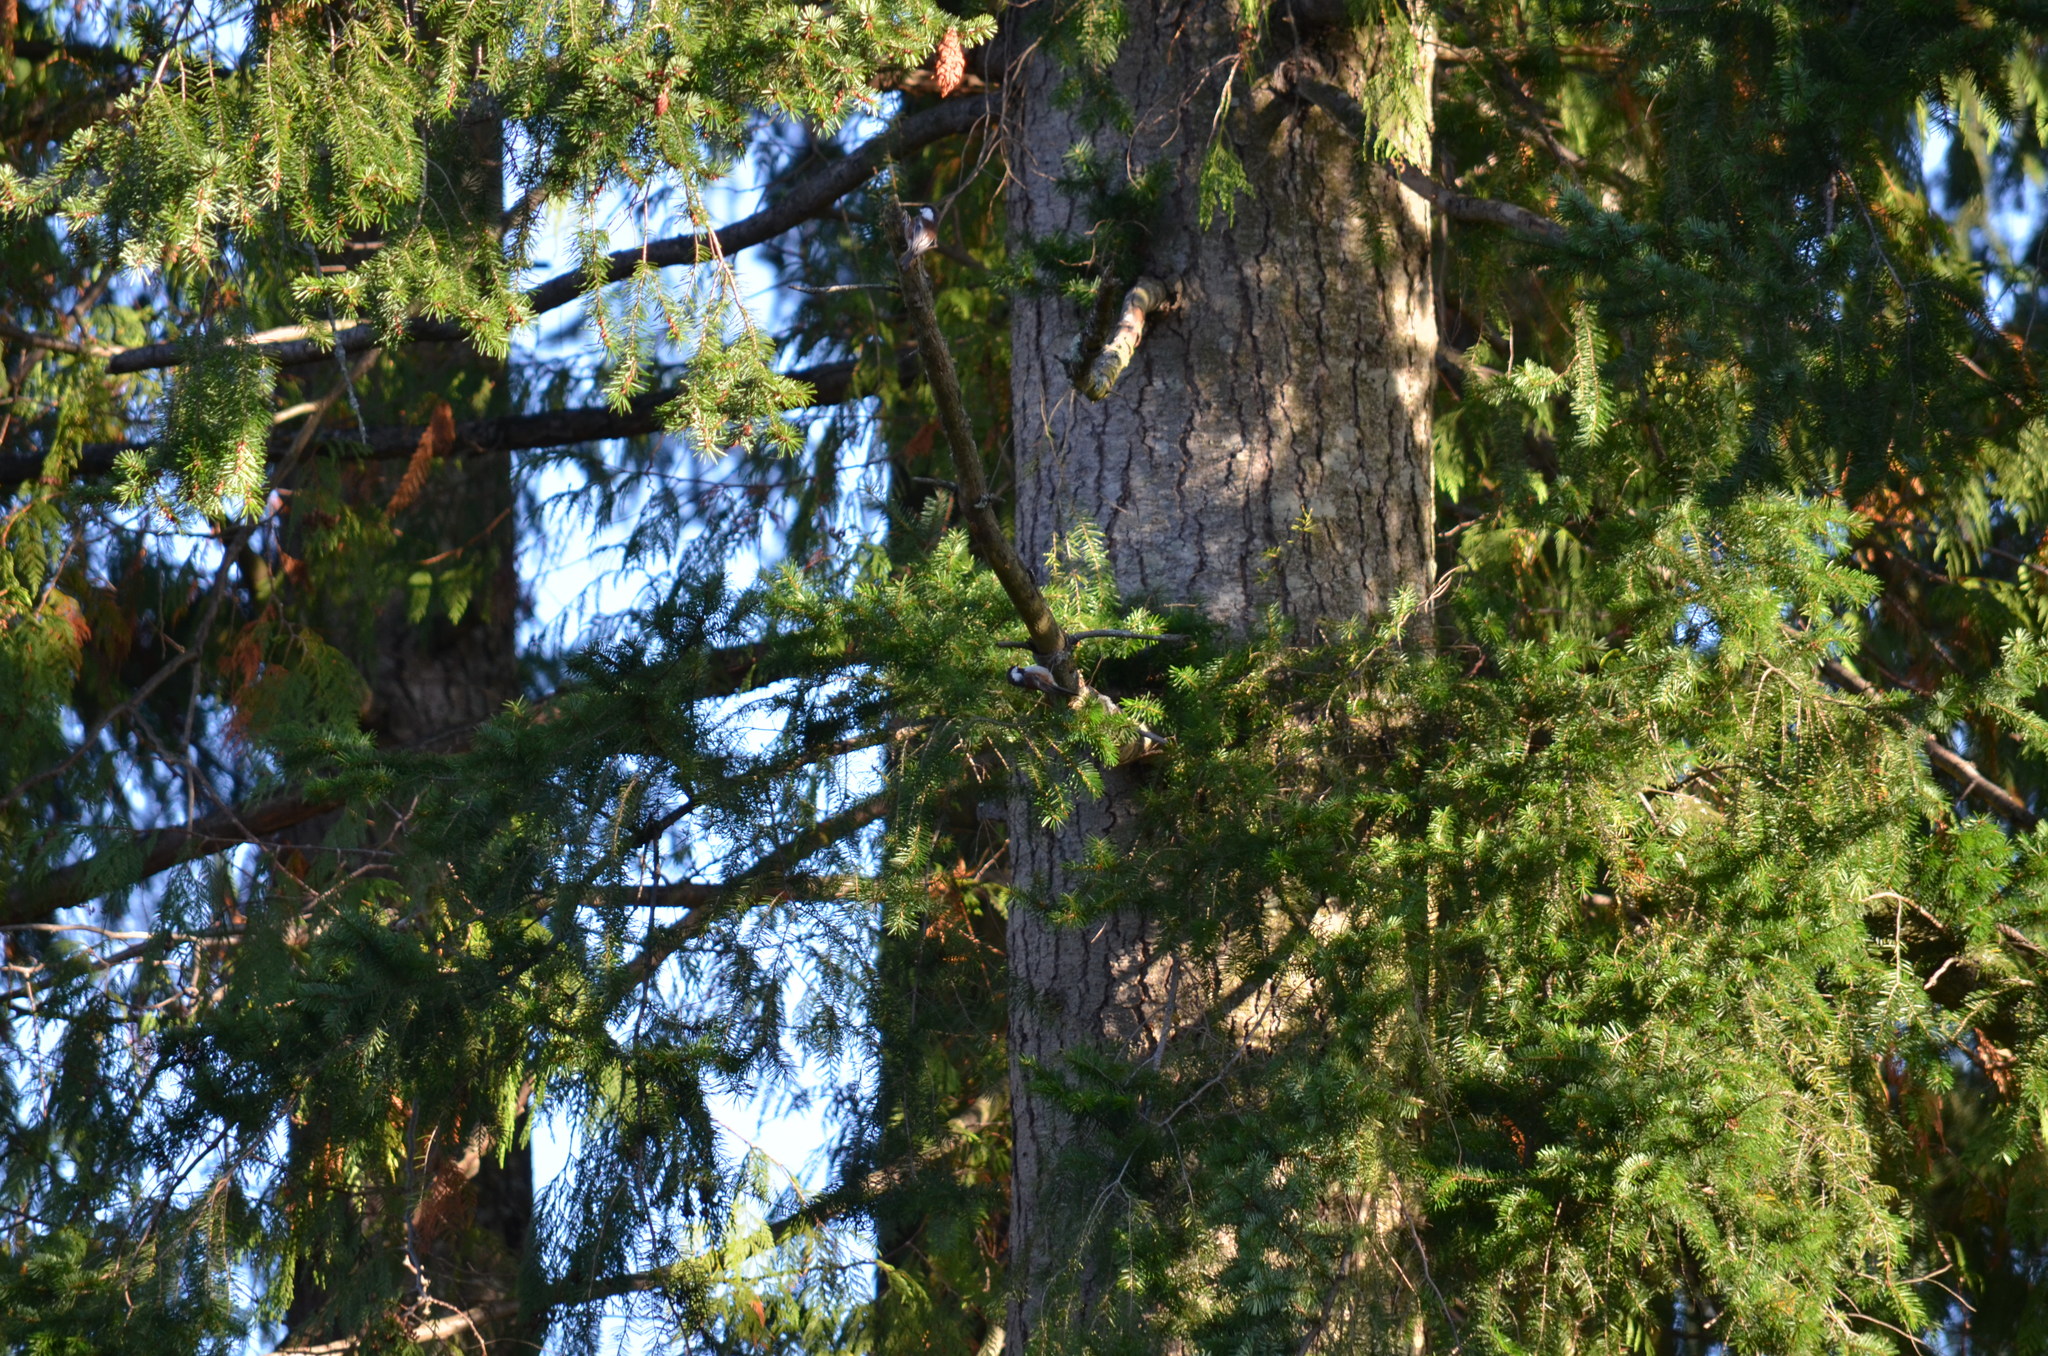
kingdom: Animalia
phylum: Chordata
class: Aves
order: Passeriformes
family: Paridae
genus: Poecile
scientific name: Poecile rufescens
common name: Chestnut-backed chickadee
